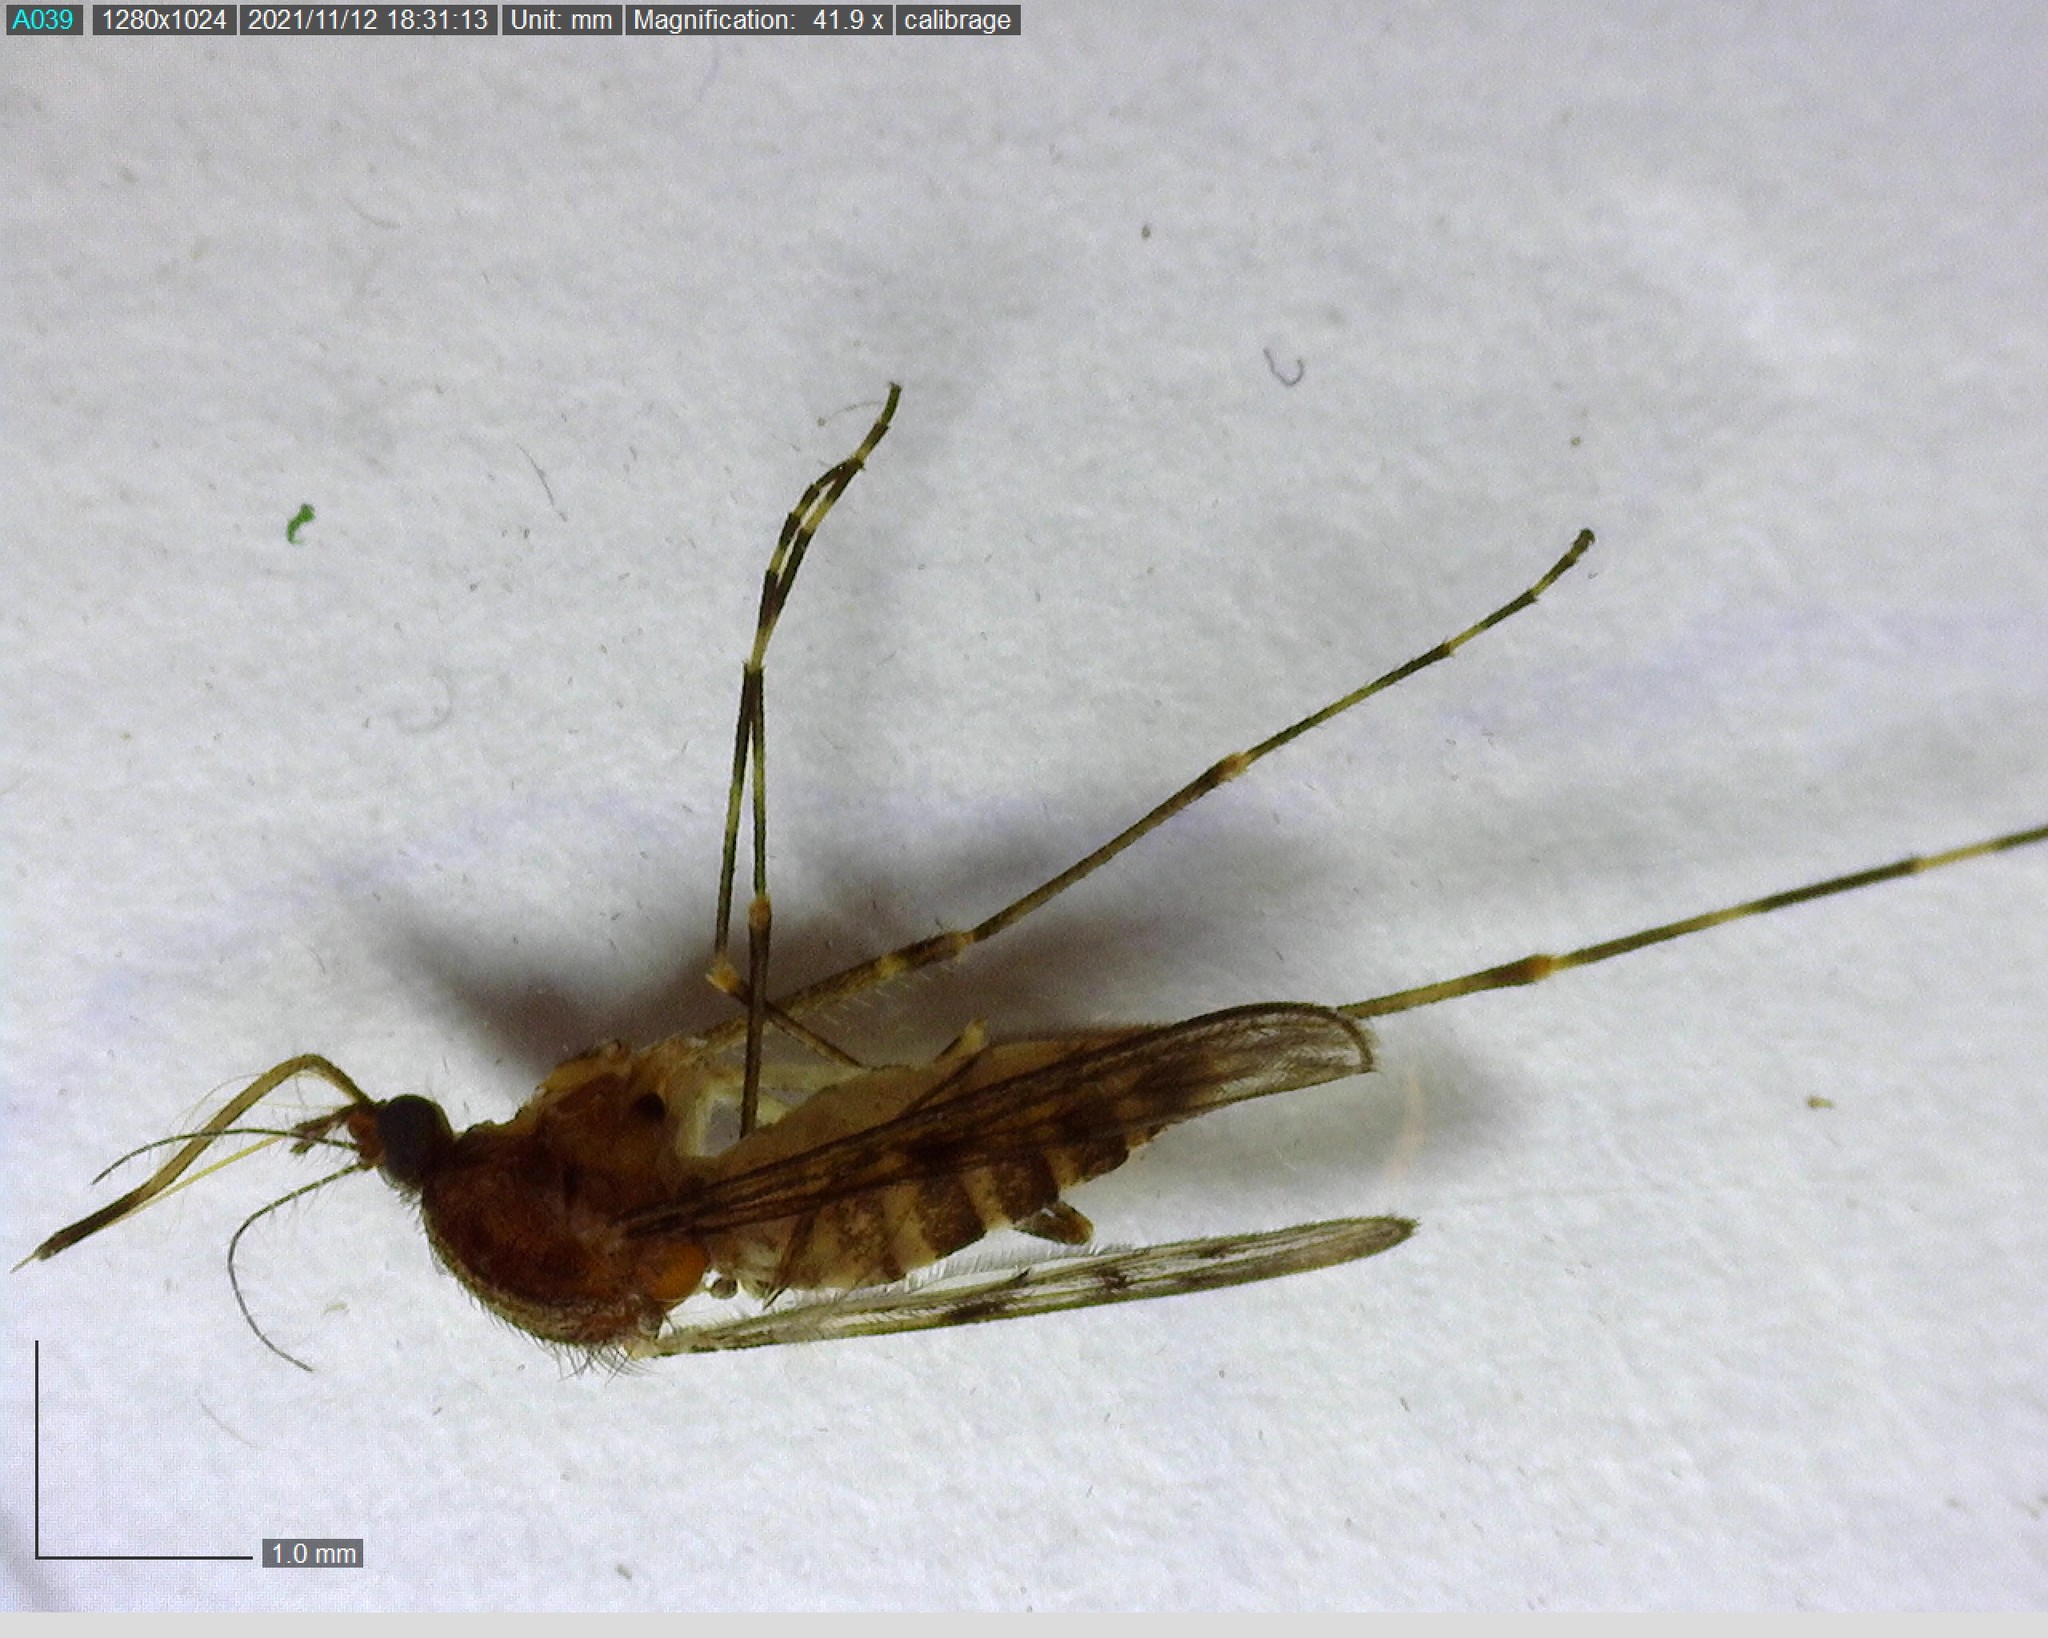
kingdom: Animalia
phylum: Arthropoda
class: Insecta
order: Diptera
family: Culicidae
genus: Culiseta
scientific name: Culiseta annulata
